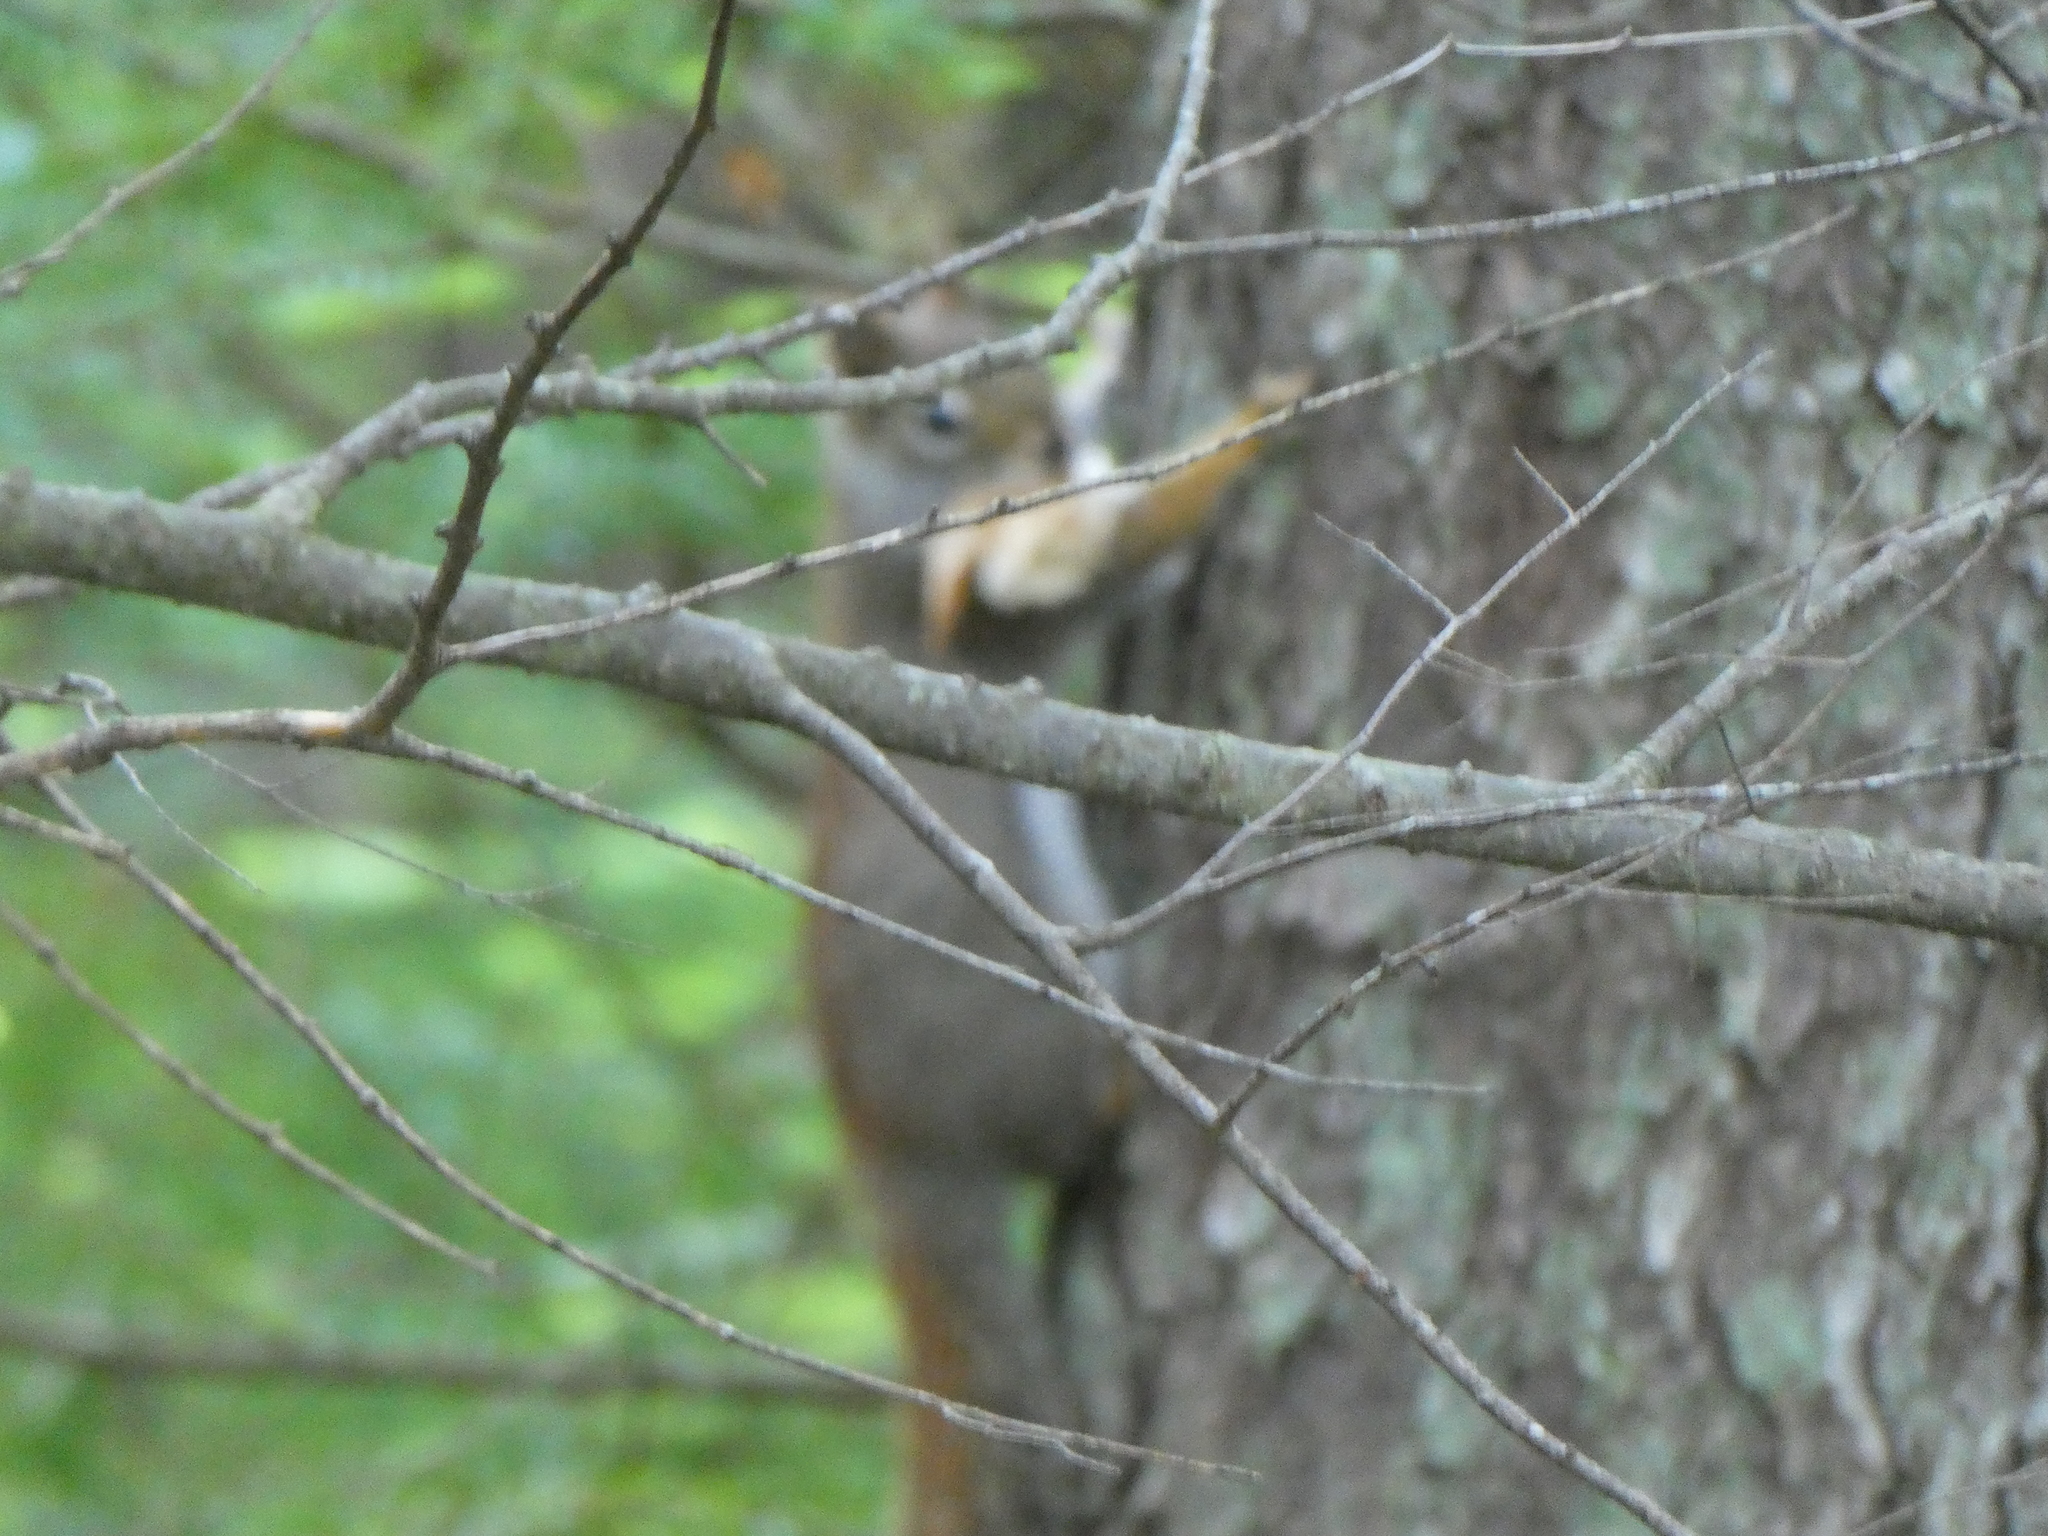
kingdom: Animalia
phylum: Chordata
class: Mammalia
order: Rodentia
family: Sciuridae
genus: Tamiasciurus
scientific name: Tamiasciurus hudsonicus
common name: Red squirrel
